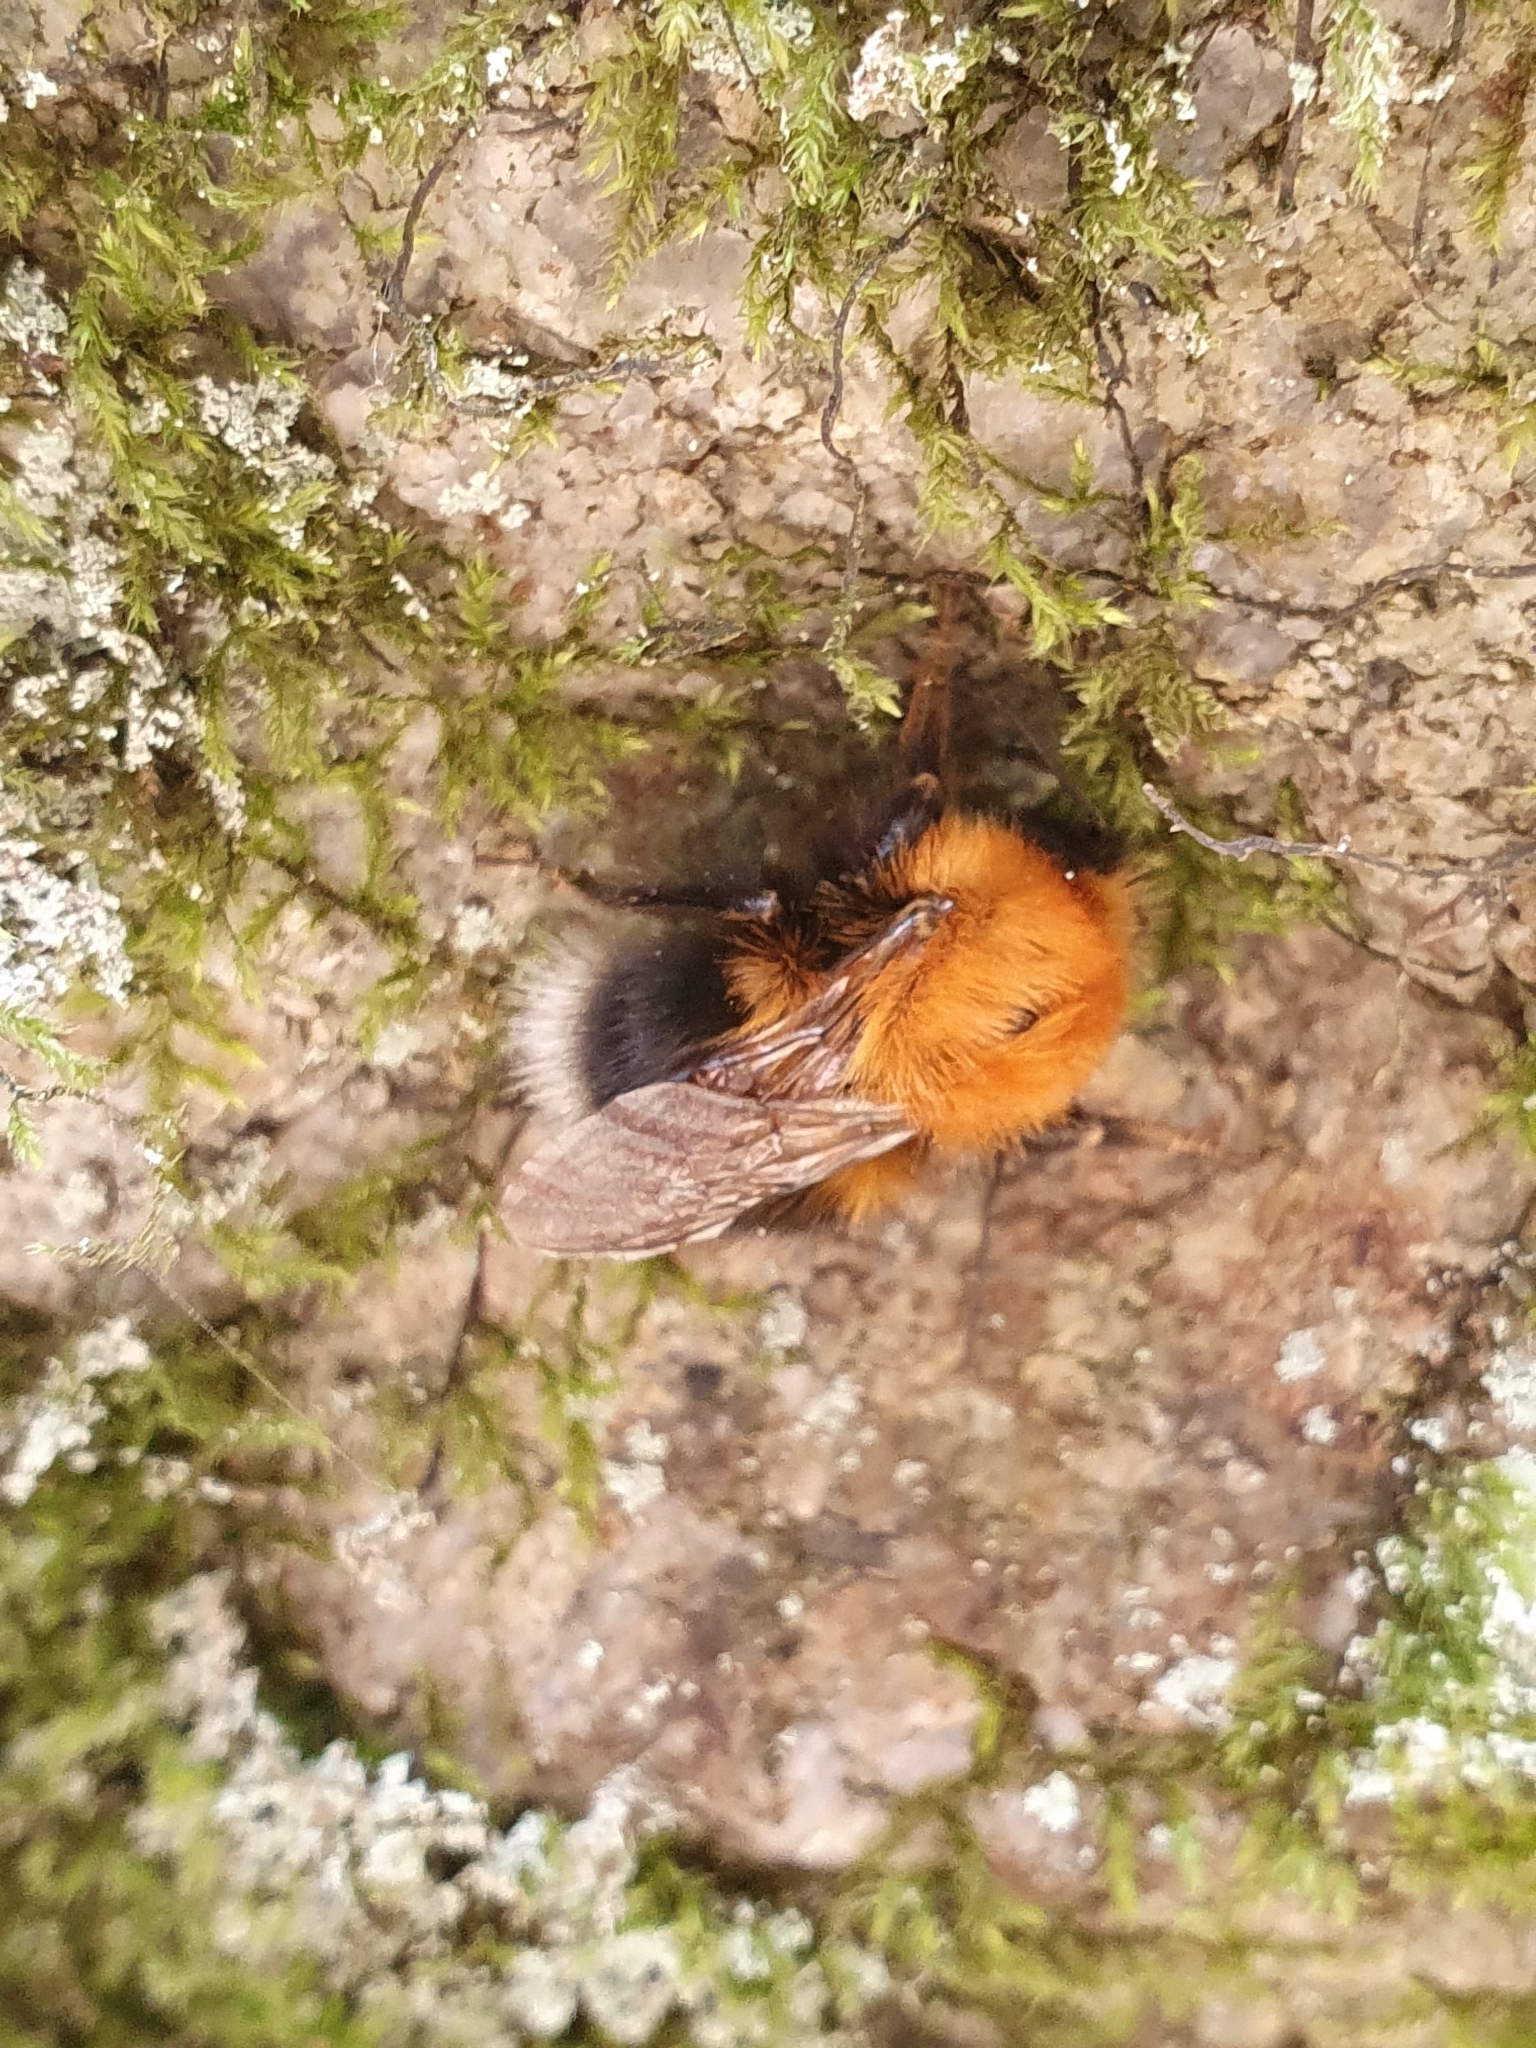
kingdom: Animalia
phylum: Arthropoda
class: Insecta
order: Hymenoptera
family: Apidae
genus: Bombus
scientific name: Bombus hypnorum
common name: New garden bumblebee
